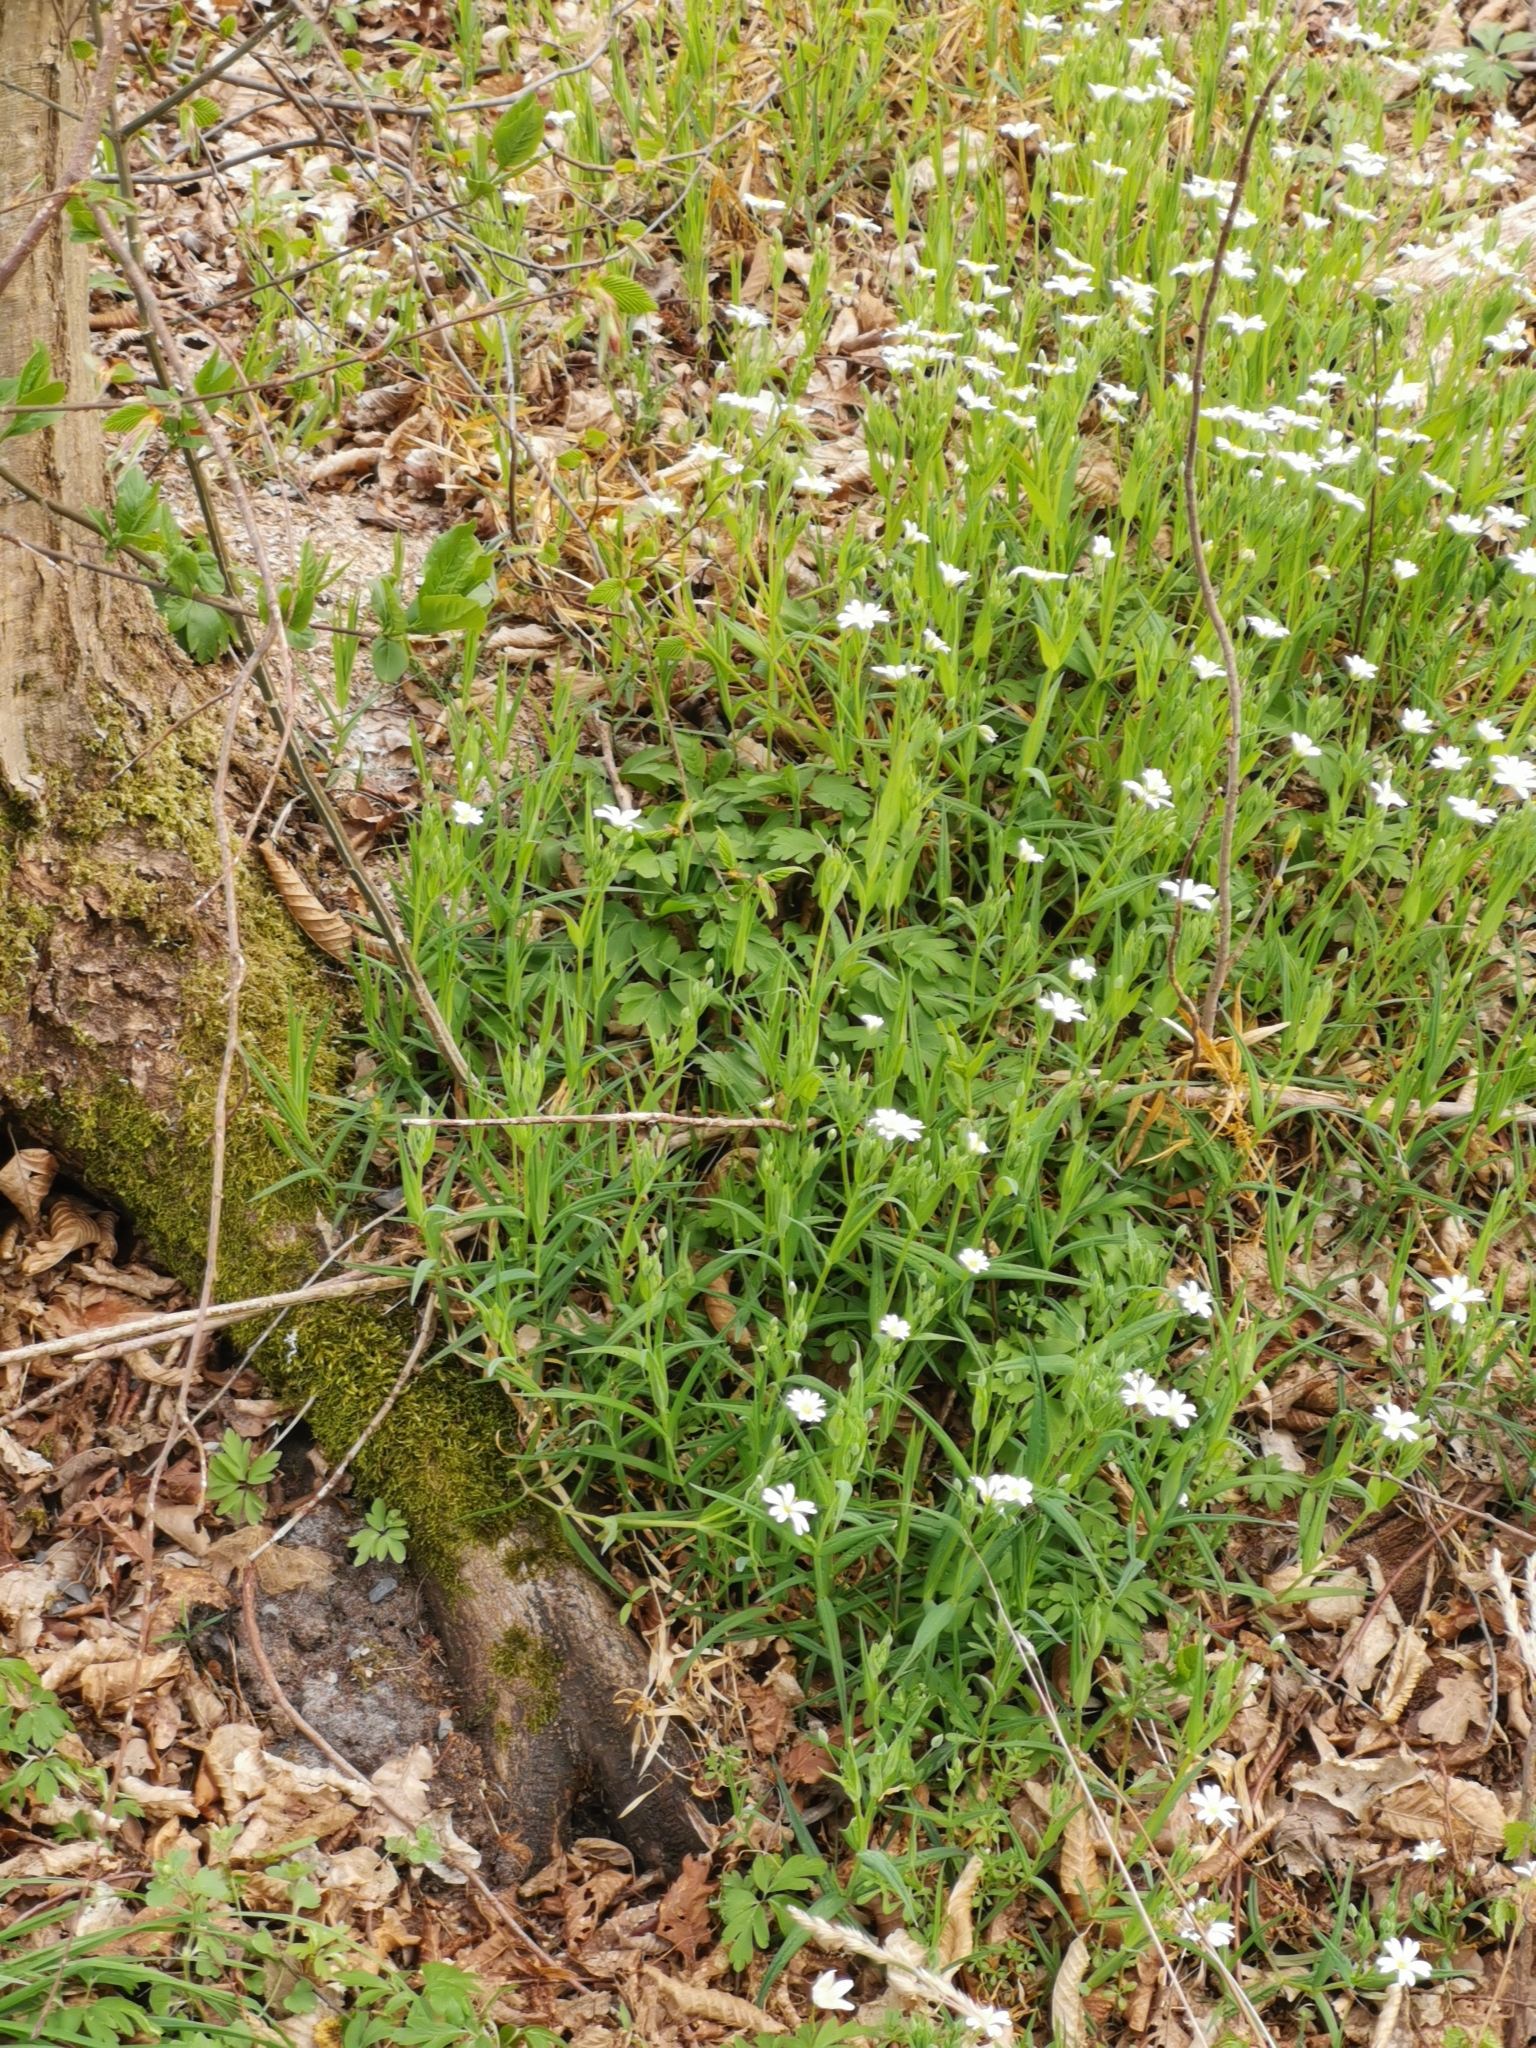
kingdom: Plantae
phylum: Tracheophyta
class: Magnoliopsida
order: Caryophyllales
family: Caryophyllaceae
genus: Rabelera
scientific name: Rabelera holostea
